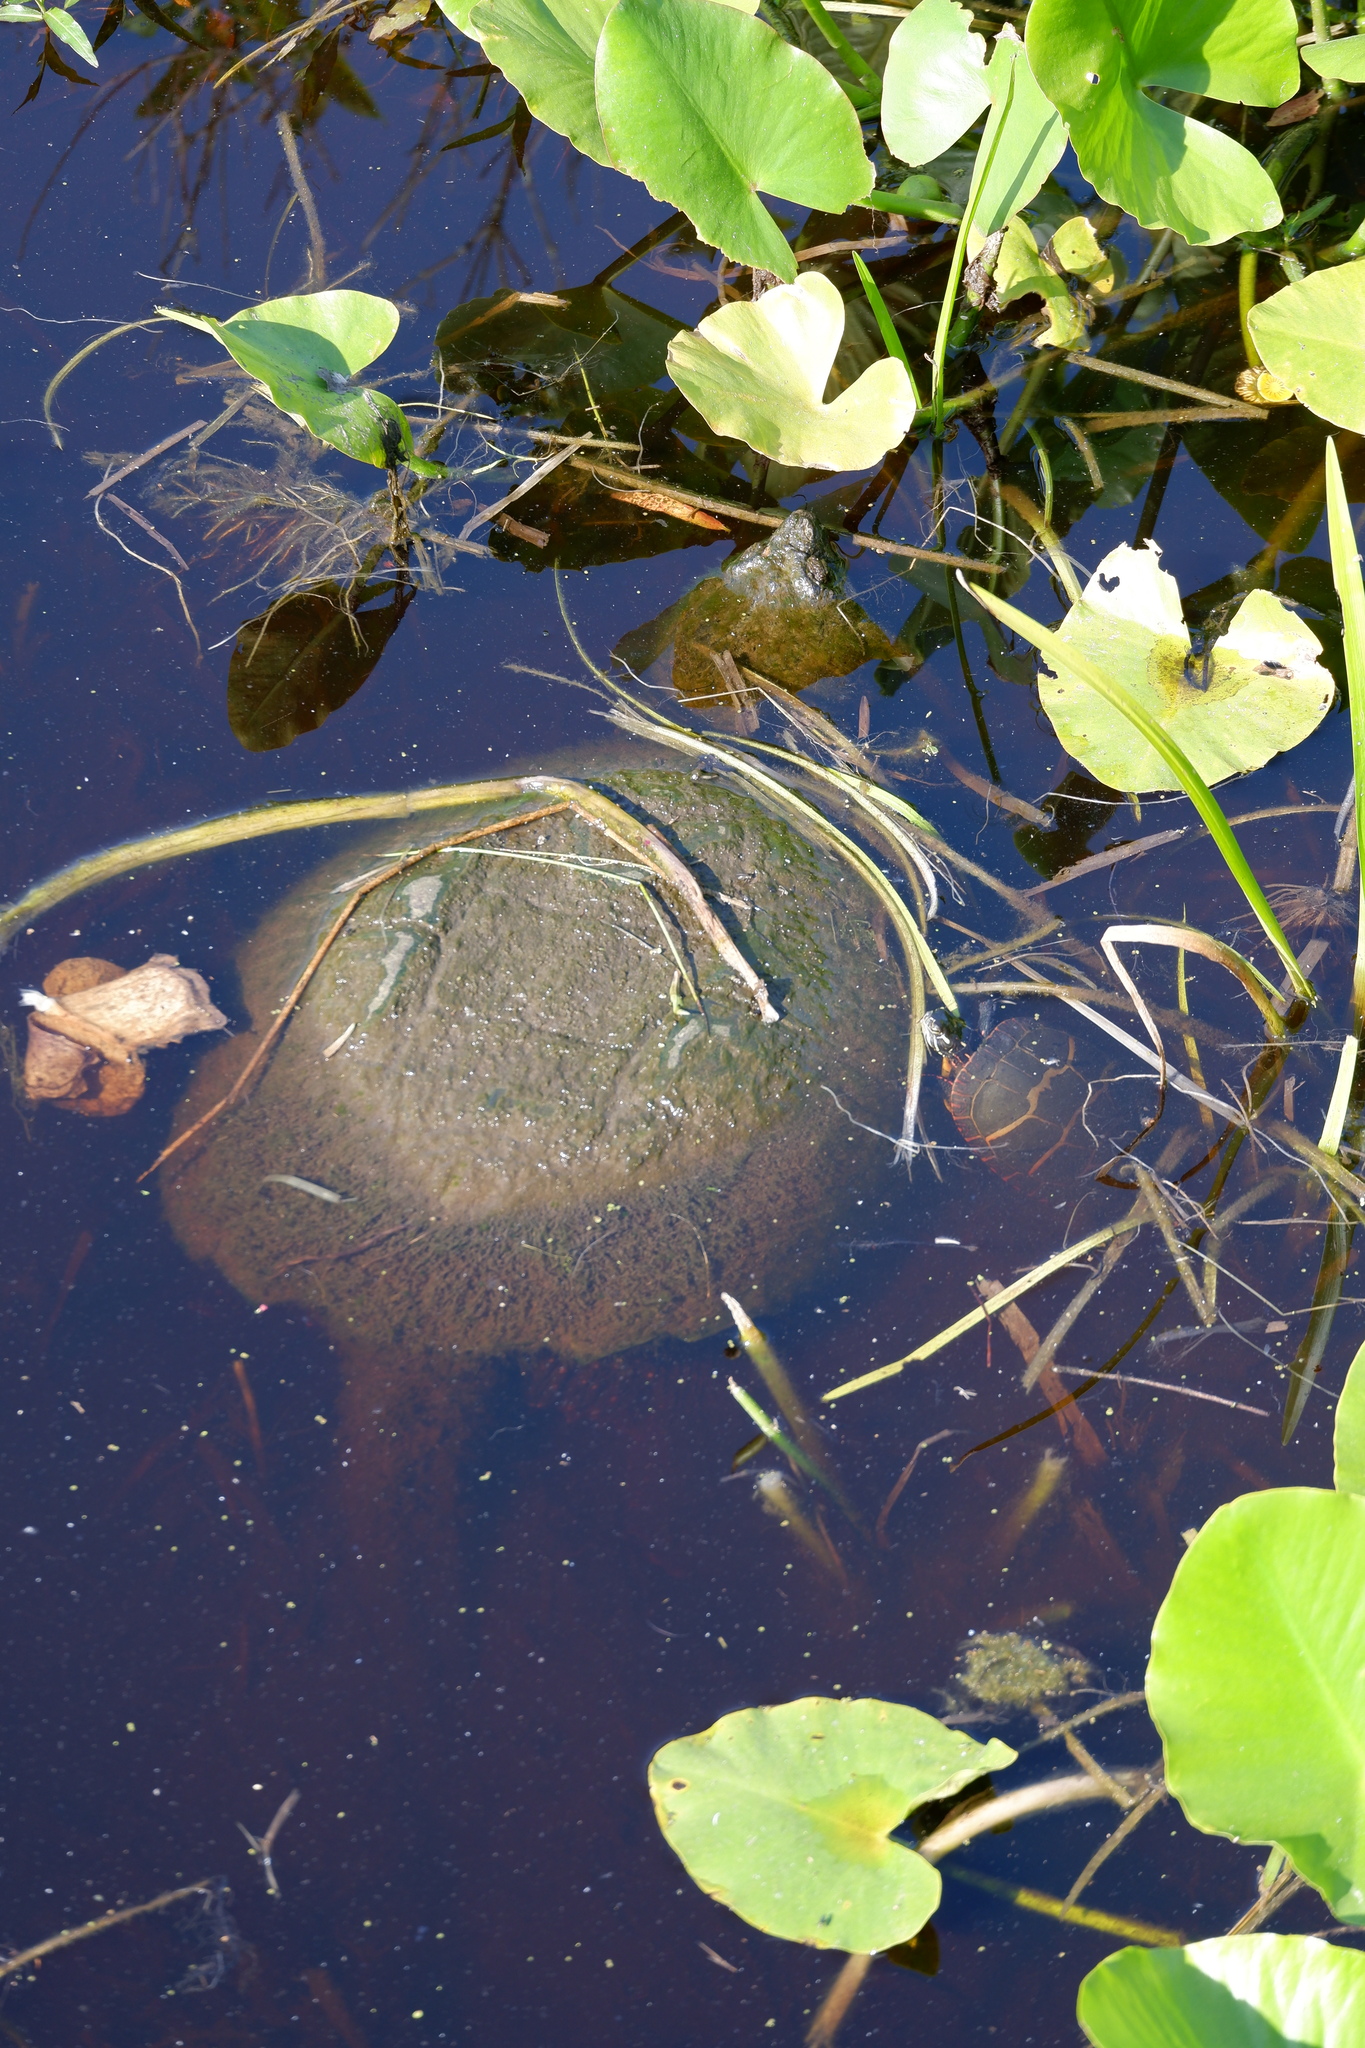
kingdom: Animalia
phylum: Chordata
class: Testudines
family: Emydidae
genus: Chrysemys
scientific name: Chrysemys picta
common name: Painted turtle
